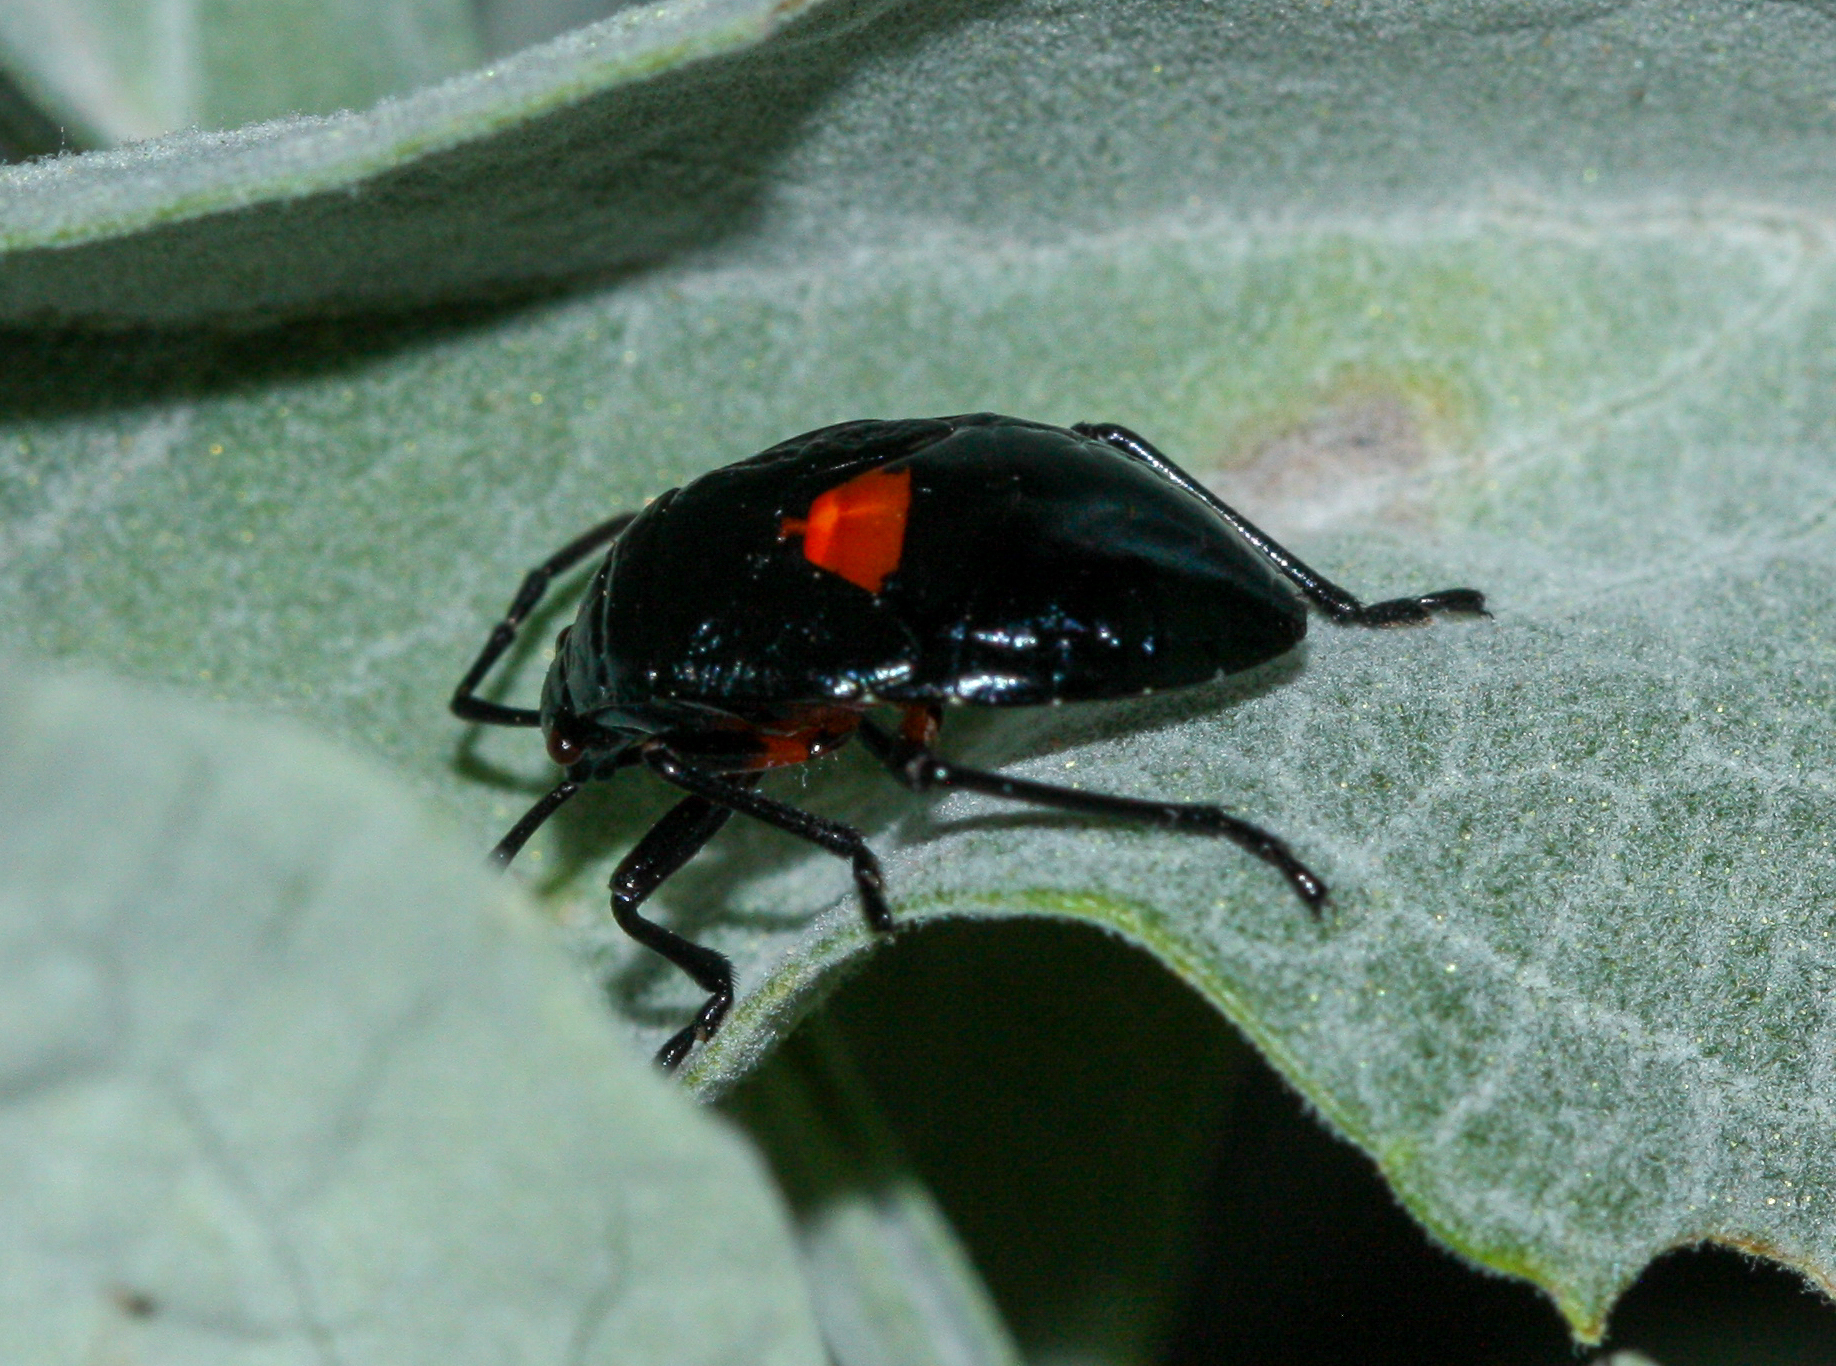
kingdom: Animalia
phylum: Arthropoda
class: Insecta
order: Hemiptera
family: Largidae
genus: Largus
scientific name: Largus
